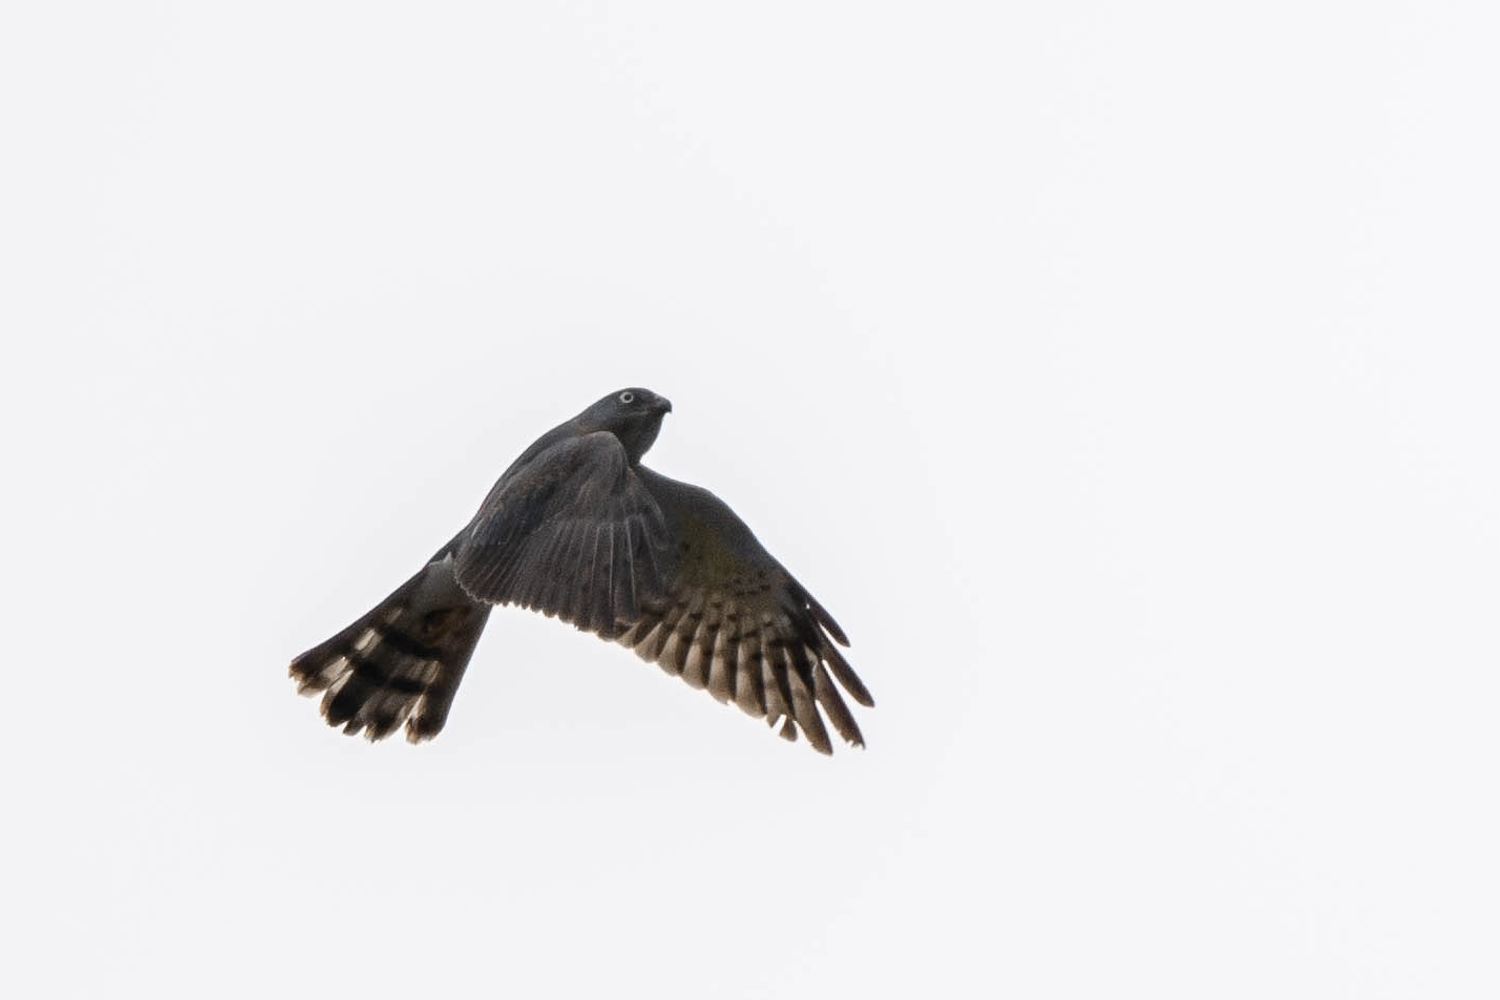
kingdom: Animalia
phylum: Chordata
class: Aves
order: Accipitriformes
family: Accipitridae
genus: Accipiter
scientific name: Accipiter soloensis
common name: Chinese sparrowhawk
